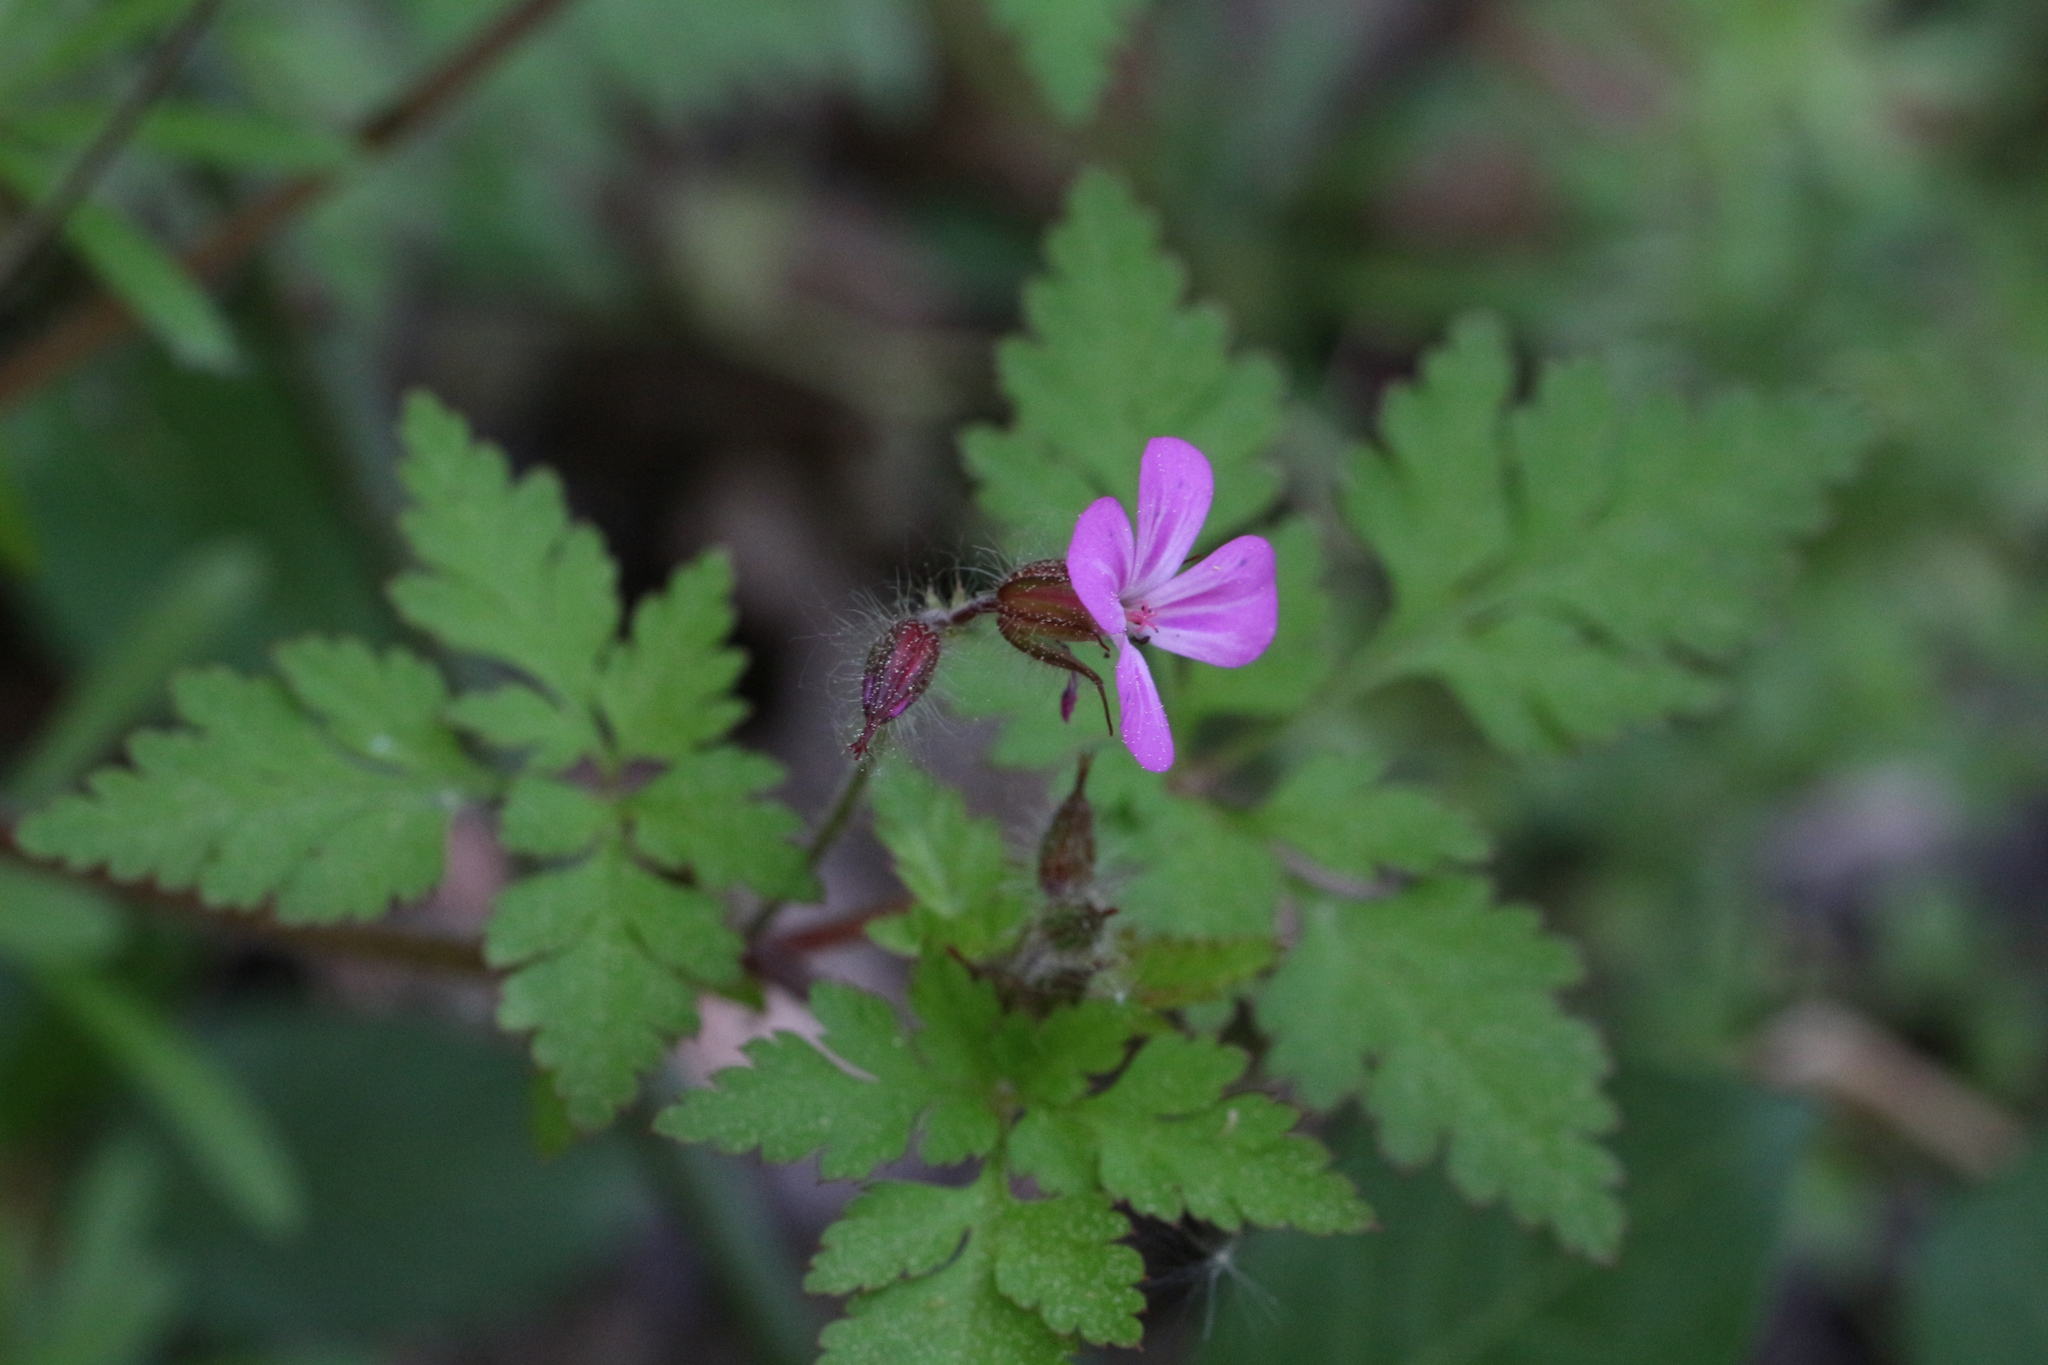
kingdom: Plantae
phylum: Tracheophyta
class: Magnoliopsida
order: Geraniales
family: Geraniaceae
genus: Geranium
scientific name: Geranium robertianum
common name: Herb-robert
